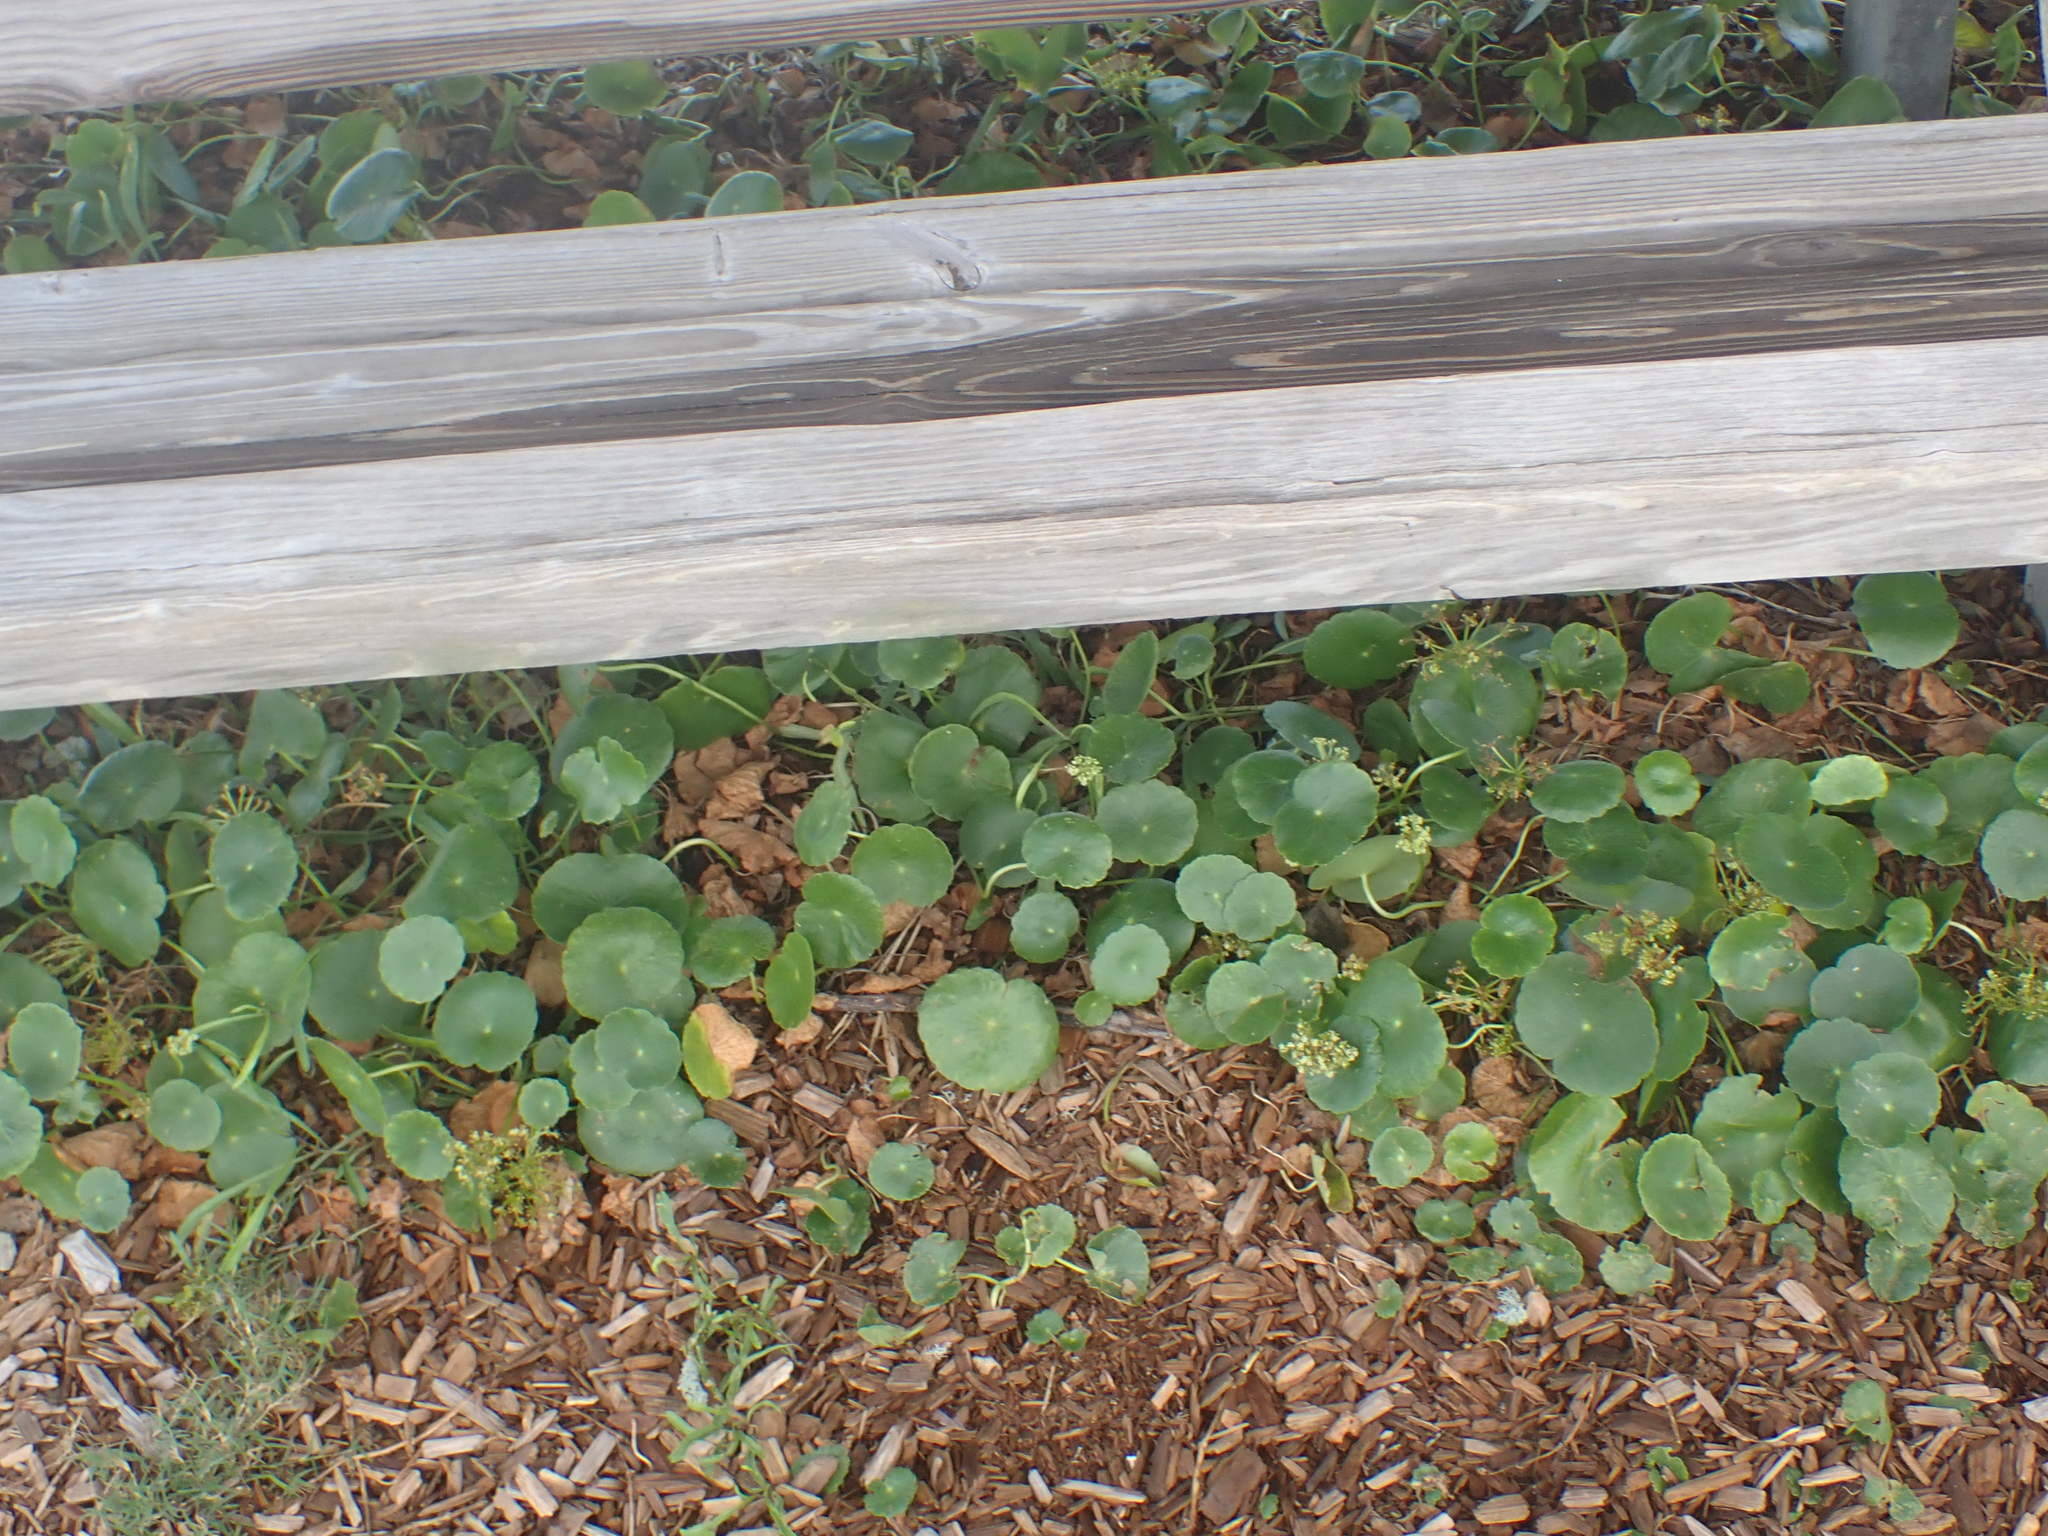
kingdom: Plantae
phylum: Tracheophyta
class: Magnoliopsida
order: Apiales
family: Araliaceae
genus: Hydrocotyle
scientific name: Hydrocotyle bonariensis
